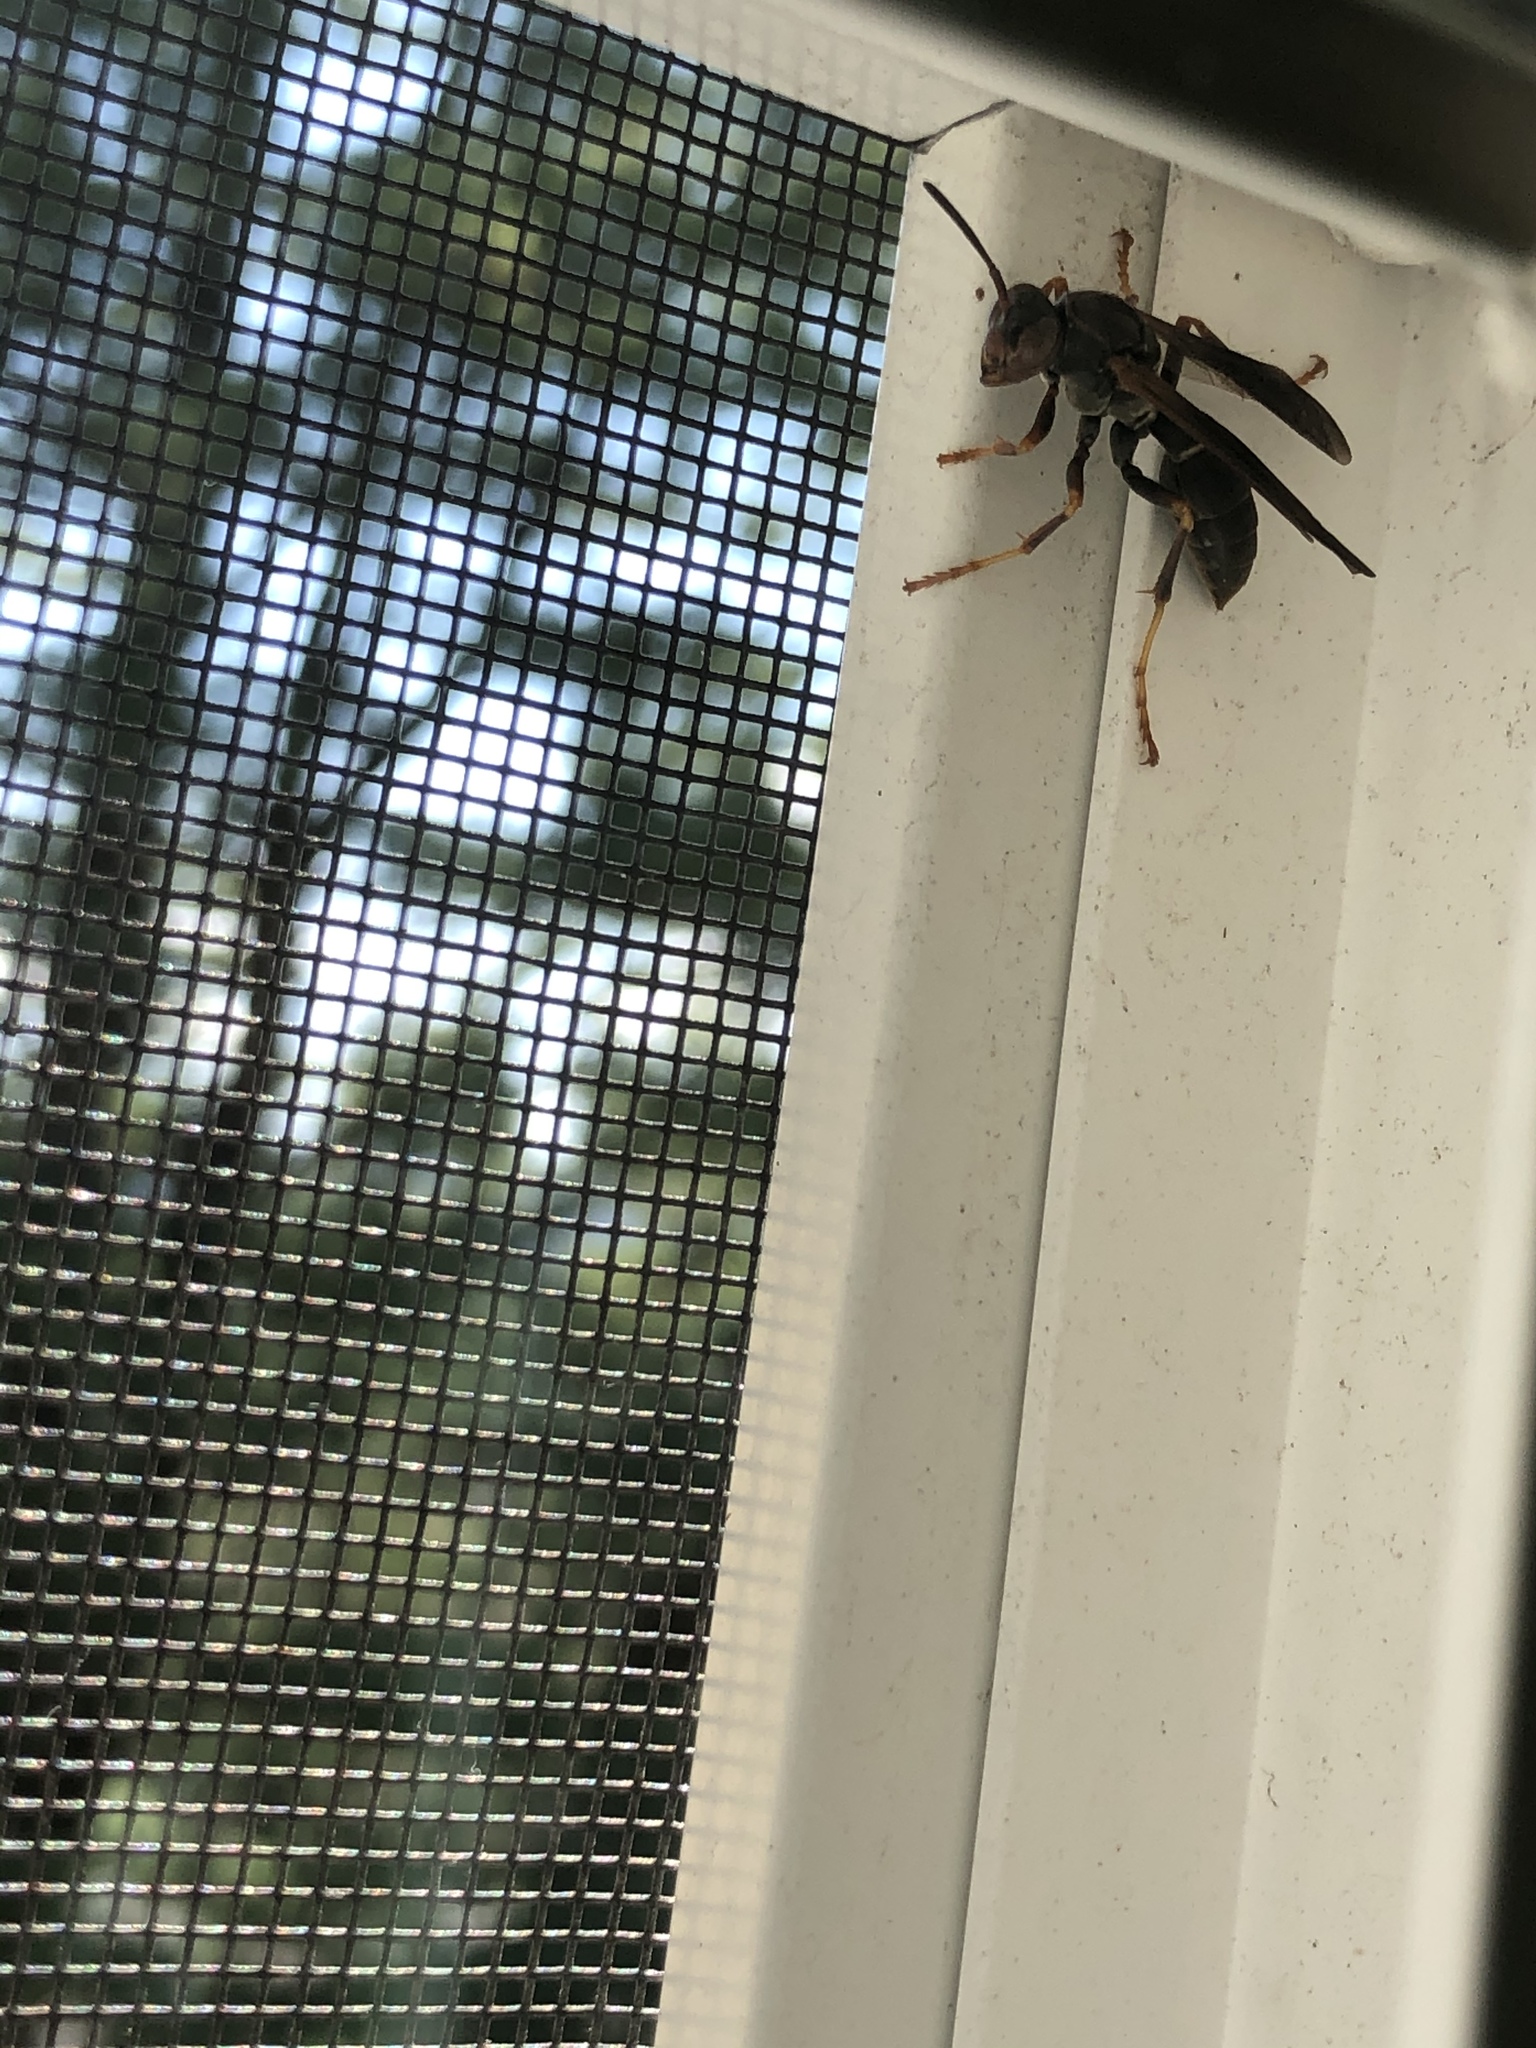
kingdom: Animalia
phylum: Arthropoda
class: Insecta
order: Hymenoptera
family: Eumenidae
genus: Polistes
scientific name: Polistes fuscatus
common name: Dark paper wasp
